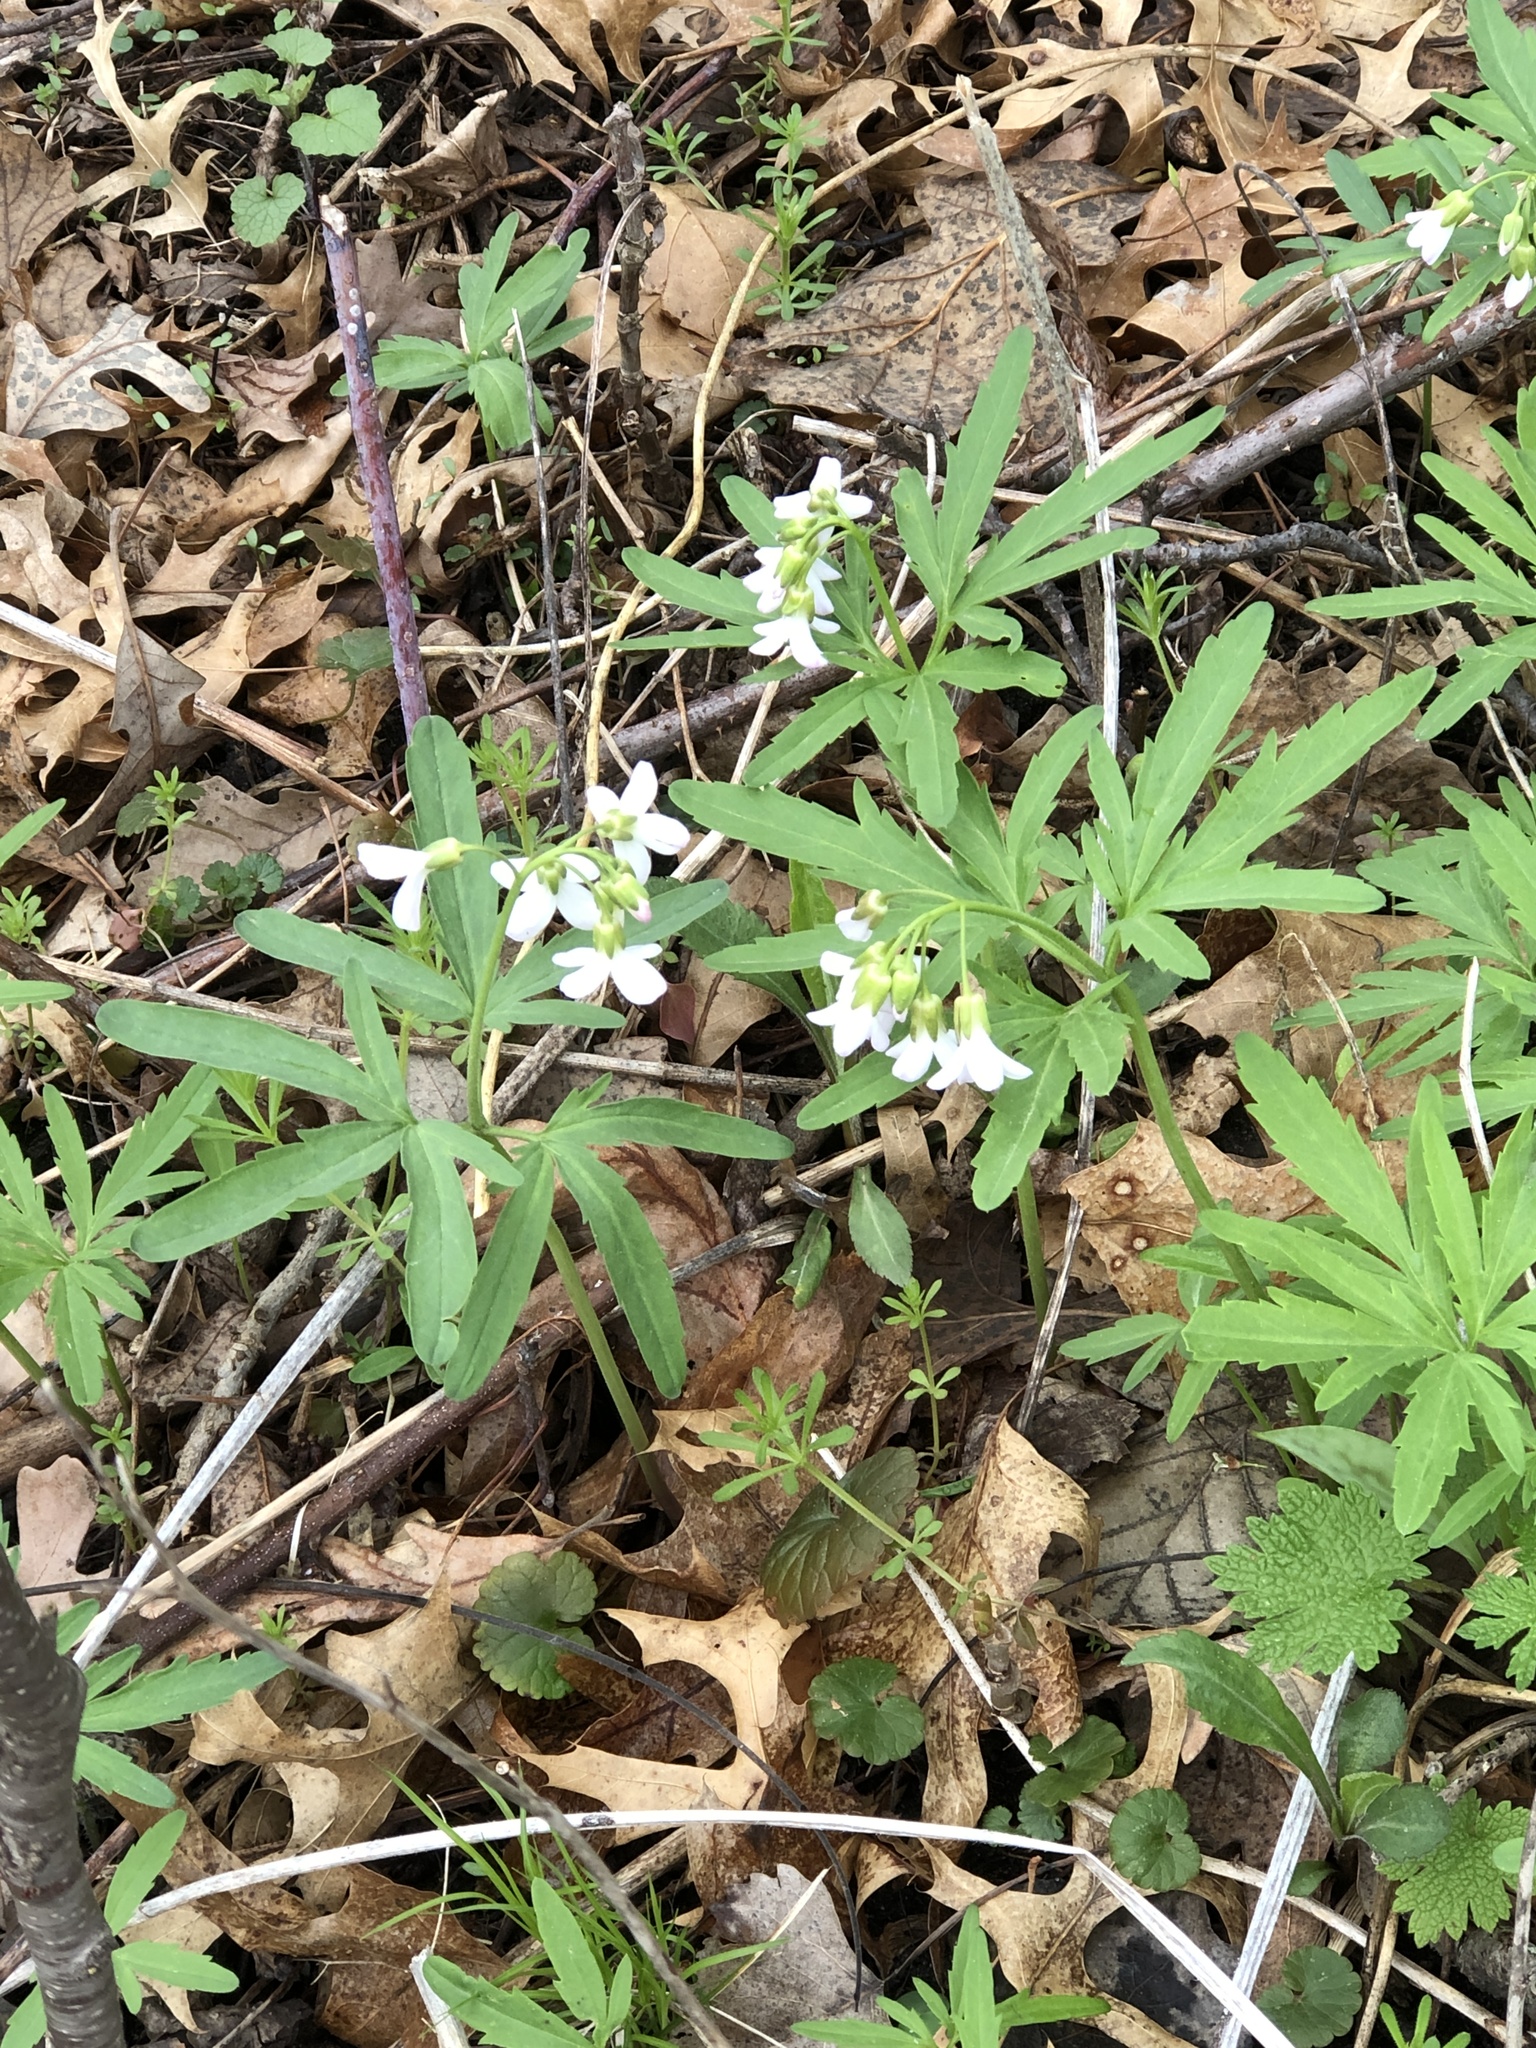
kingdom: Plantae
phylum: Tracheophyta
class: Magnoliopsida
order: Brassicales
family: Brassicaceae
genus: Cardamine
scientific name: Cardamine concatenata
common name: Cut-leaf toothcup
